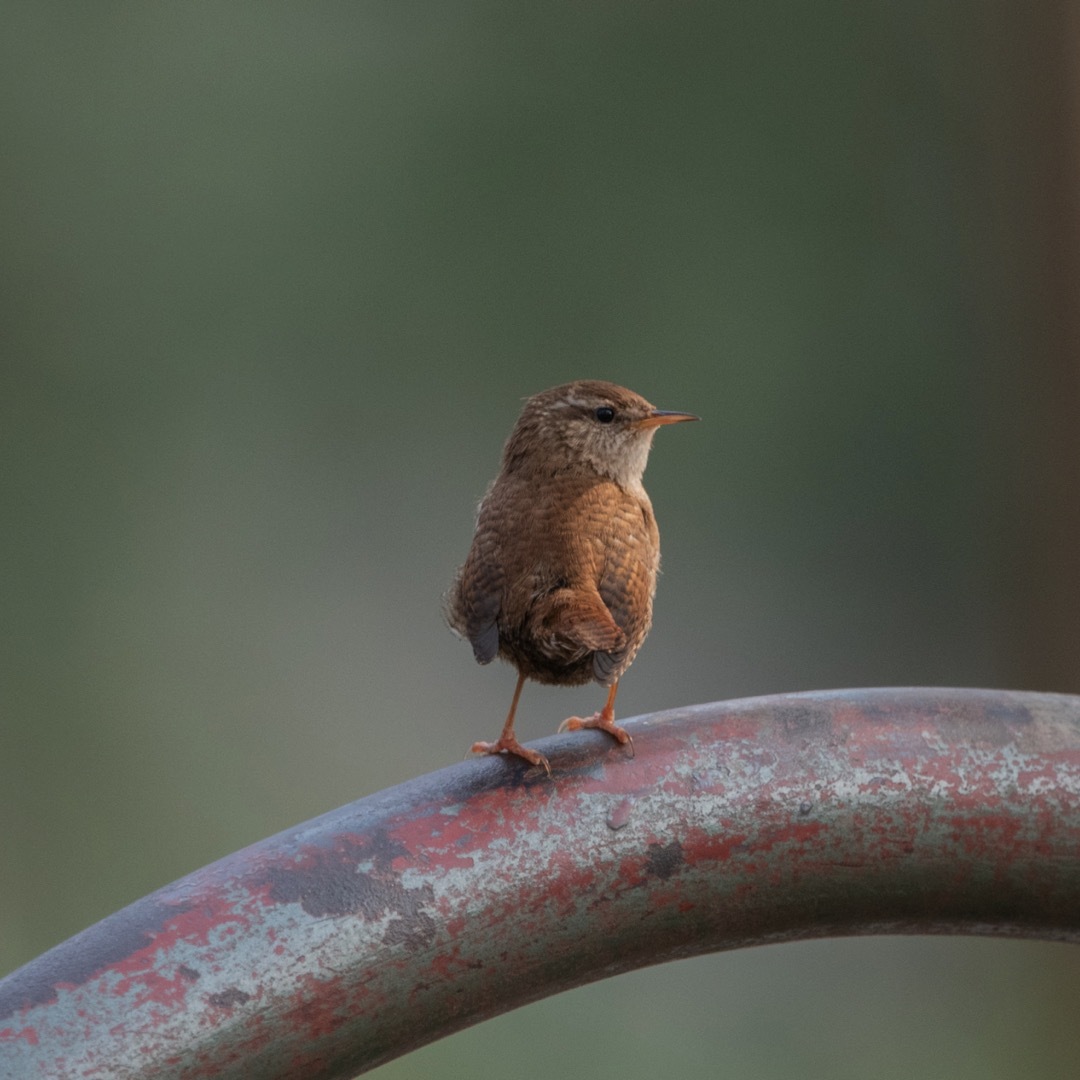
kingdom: Animalia
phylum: Chordata
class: Aves
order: Passeriformes
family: Troglodytidae
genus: Troglodytes
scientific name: Troglodytes troglodytes
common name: Eurasian wren
